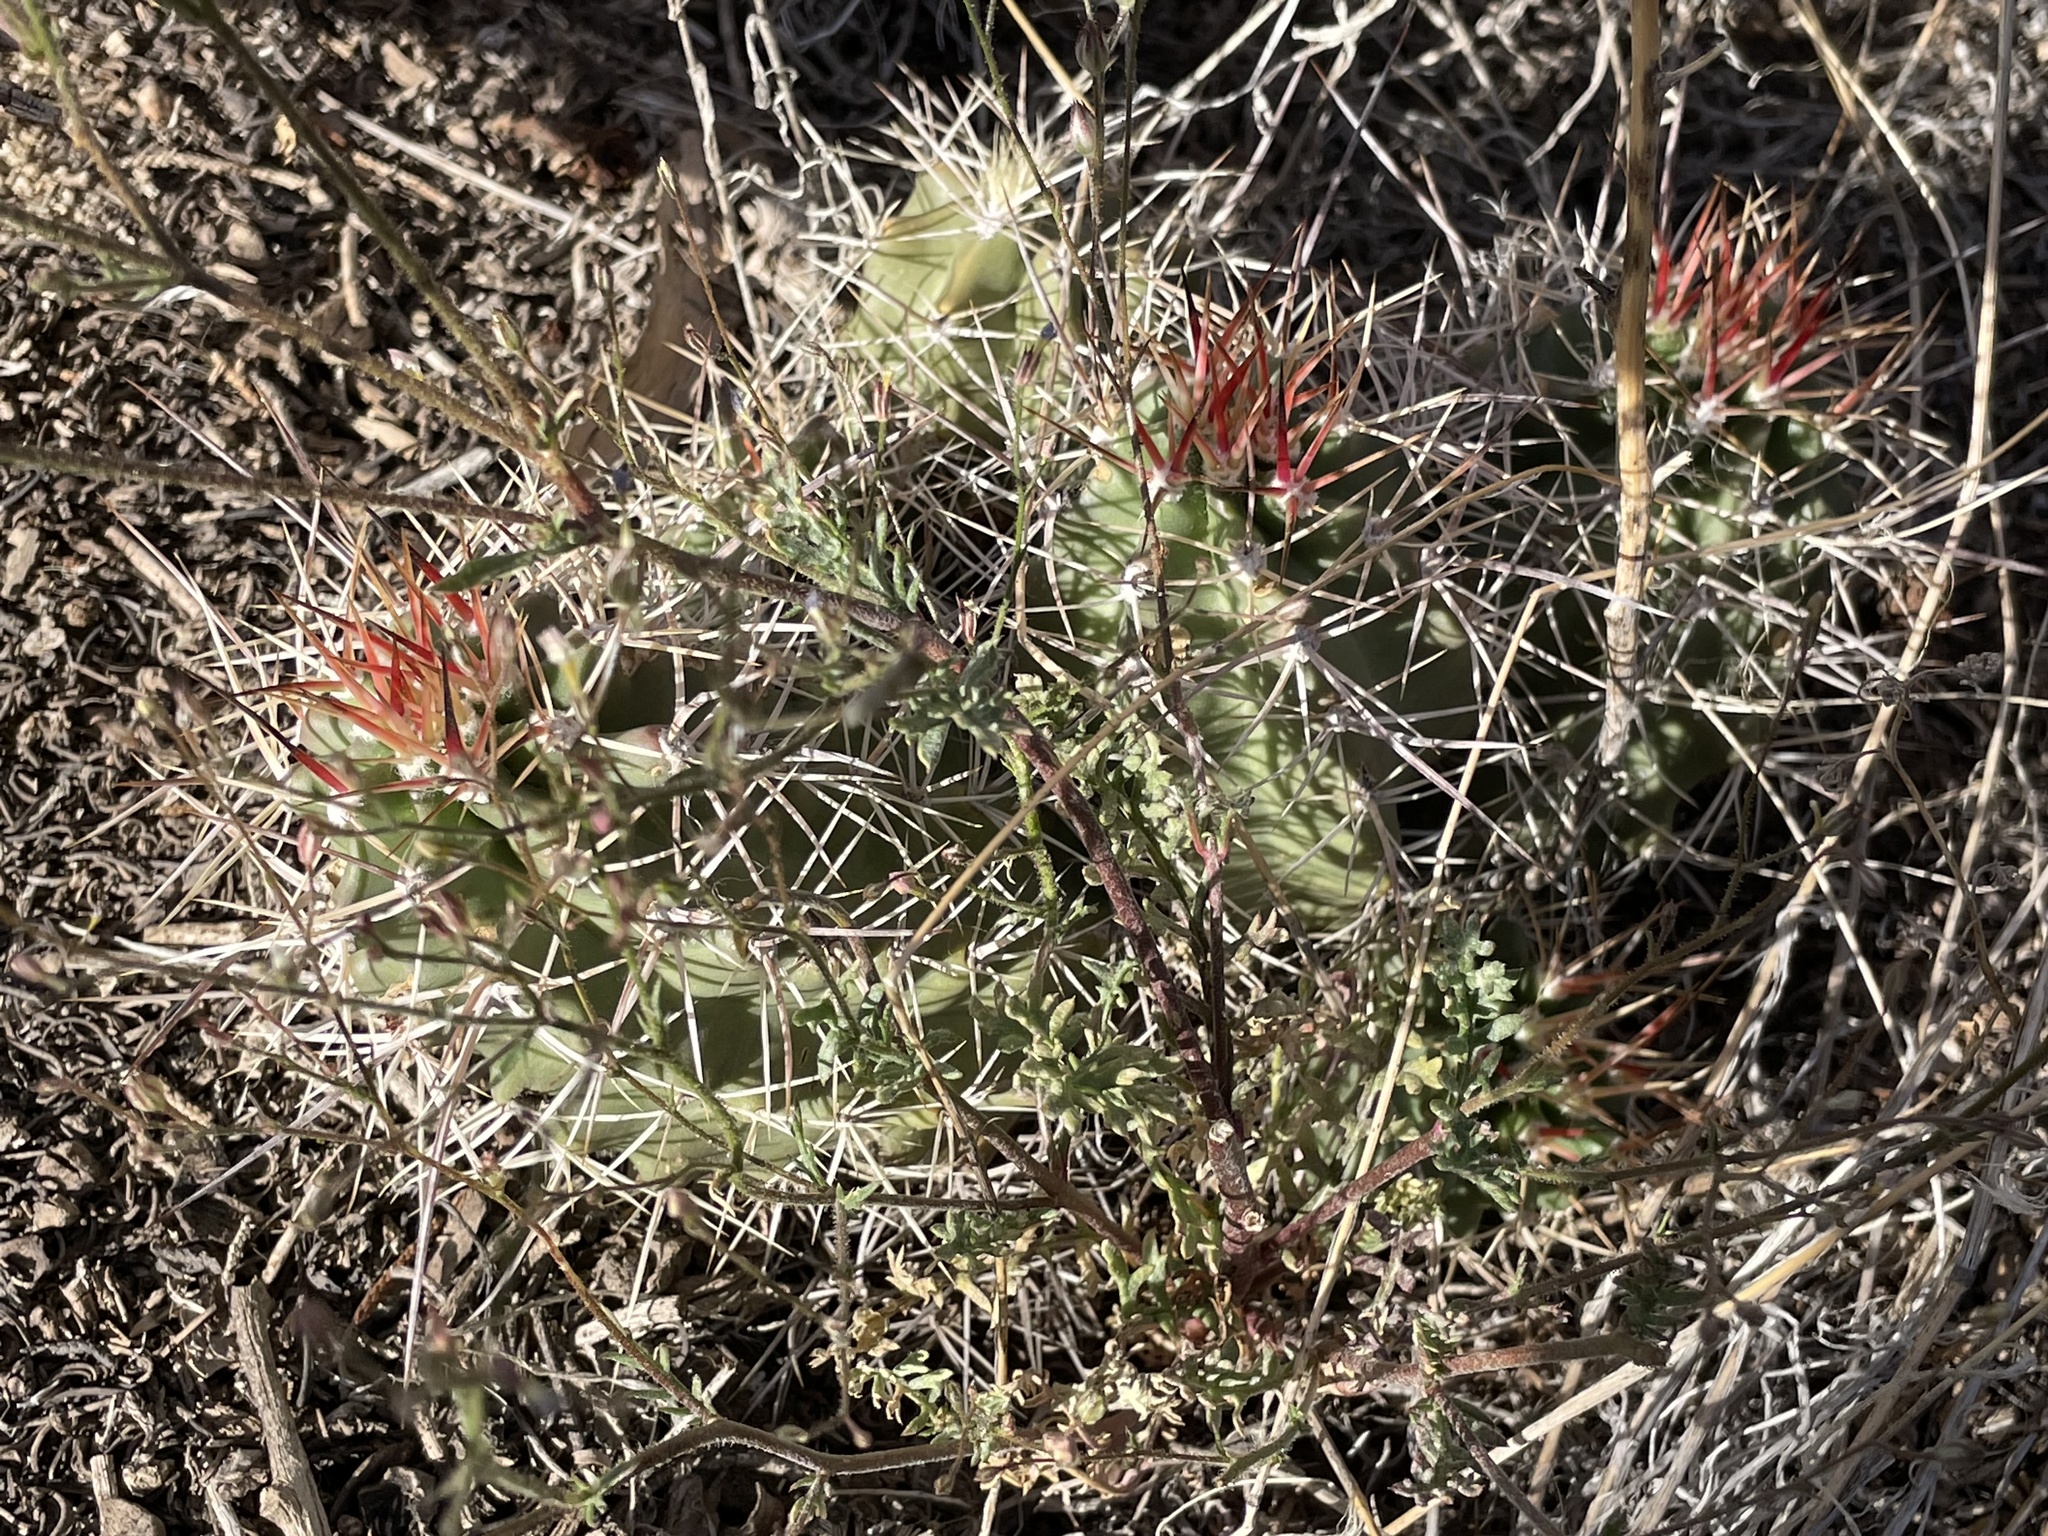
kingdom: Plantae
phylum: Tracheophyta
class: Magnoliopsida
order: Caryophyllales
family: Cactaceae
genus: Echinocereus
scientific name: Echinocereus triglochidiatus
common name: Claretcup hedgehog
